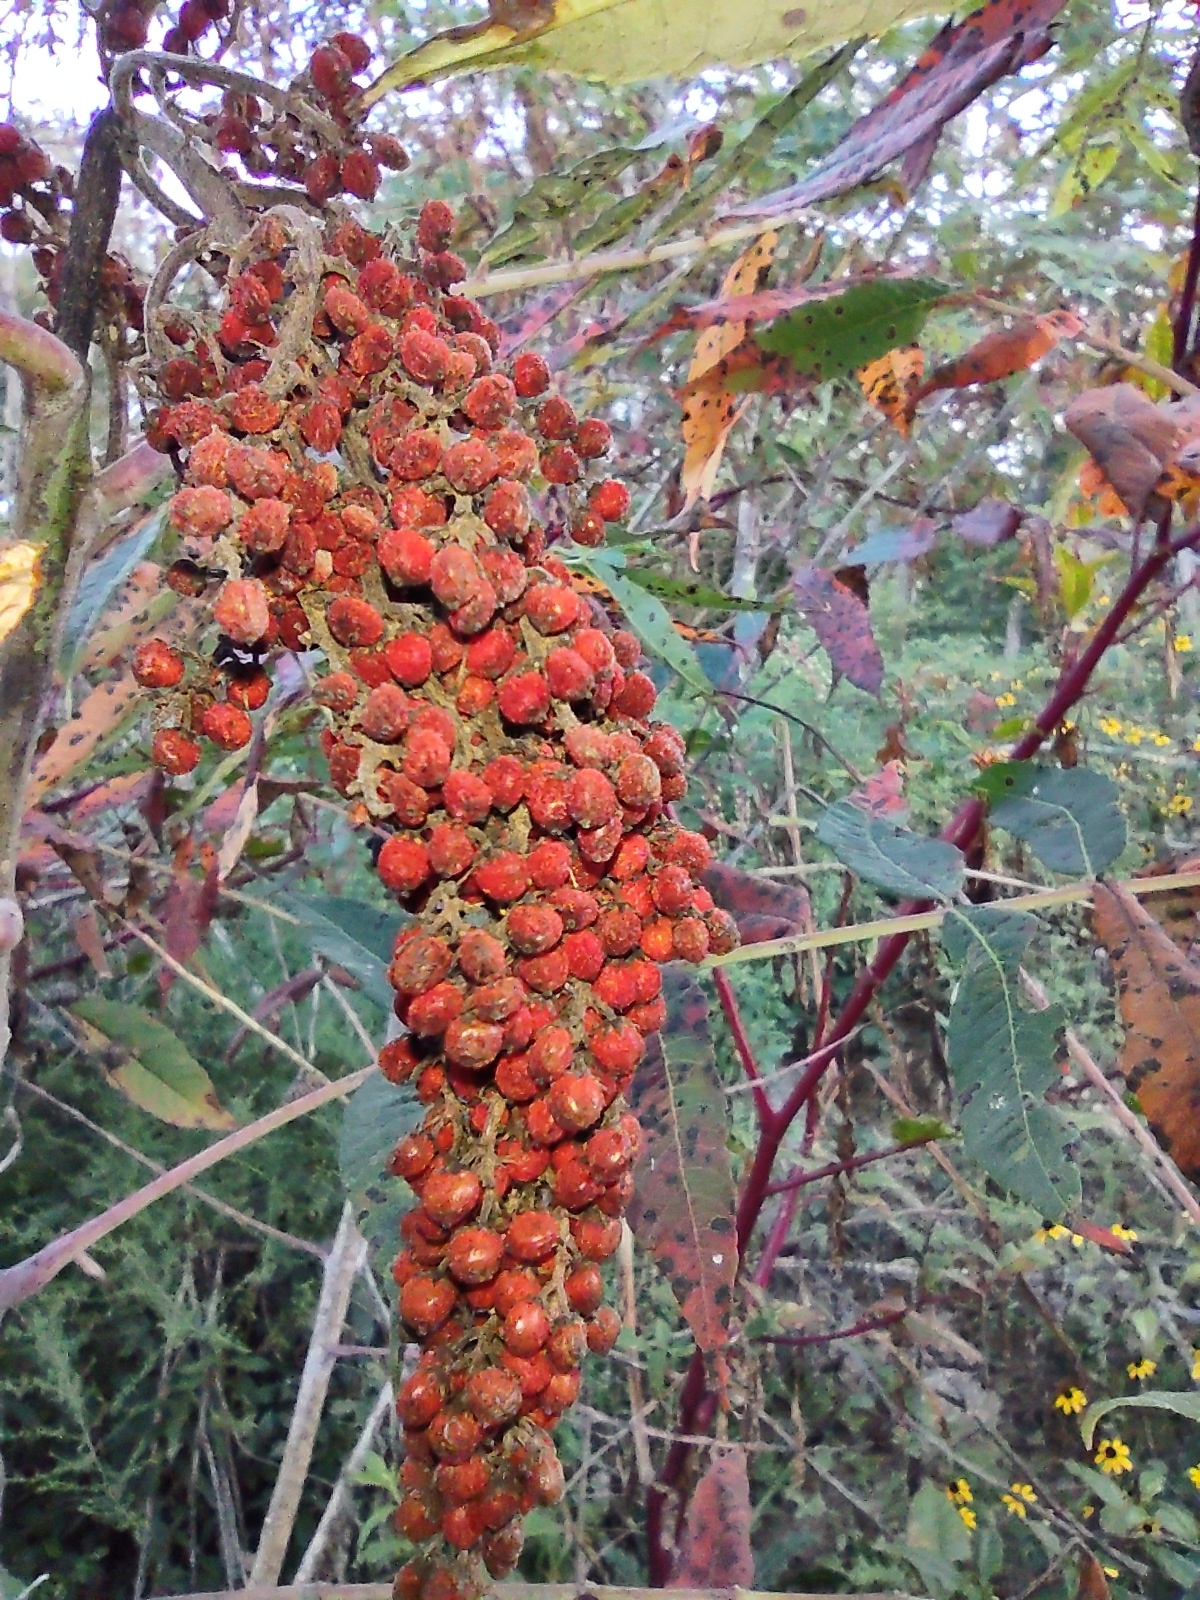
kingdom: Plantae
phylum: Tracheophyta
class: Magnoliopsida
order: Sapindales
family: Anacardiaceae
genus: Rhus
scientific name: Rhus glabra
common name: Scarlet sumac
